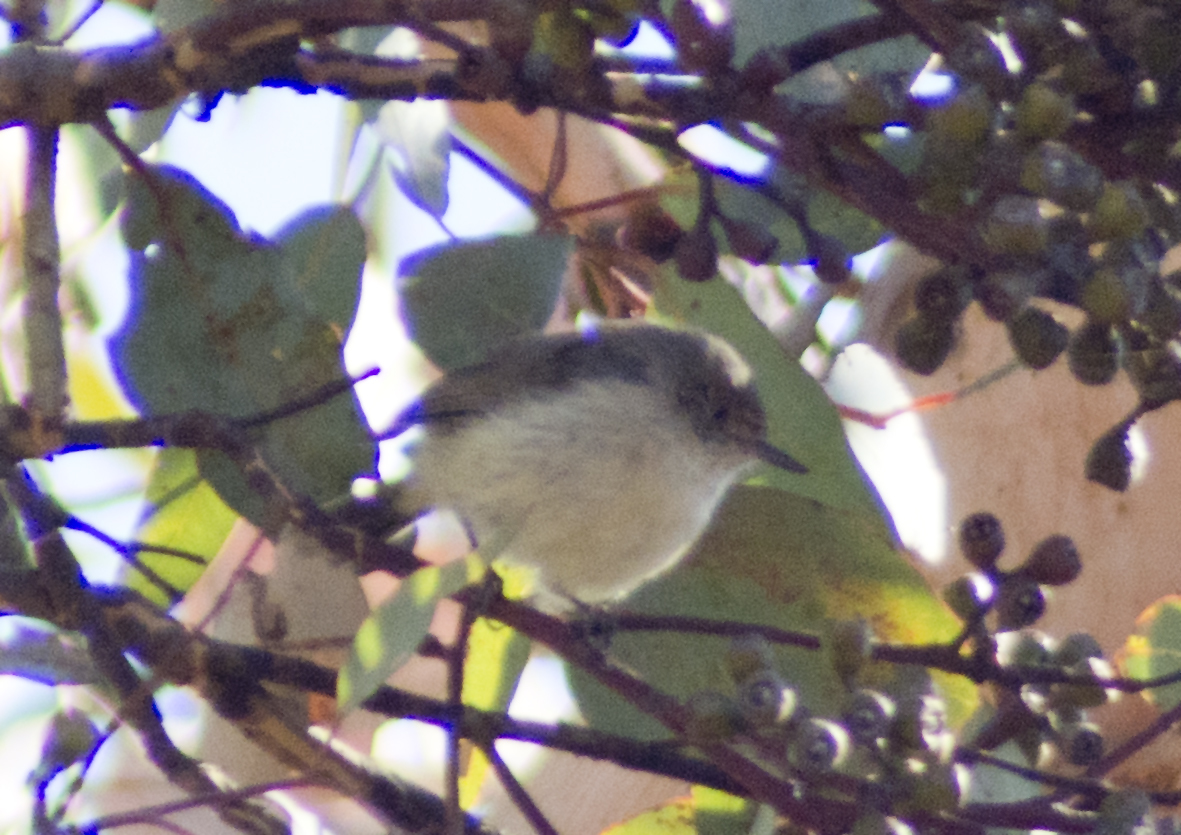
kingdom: Animalia
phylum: Chordata
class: Aves
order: Passeriformes
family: Acanthizidae
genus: Acanthiza
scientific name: Acanthiza inornata
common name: Western thornbill
